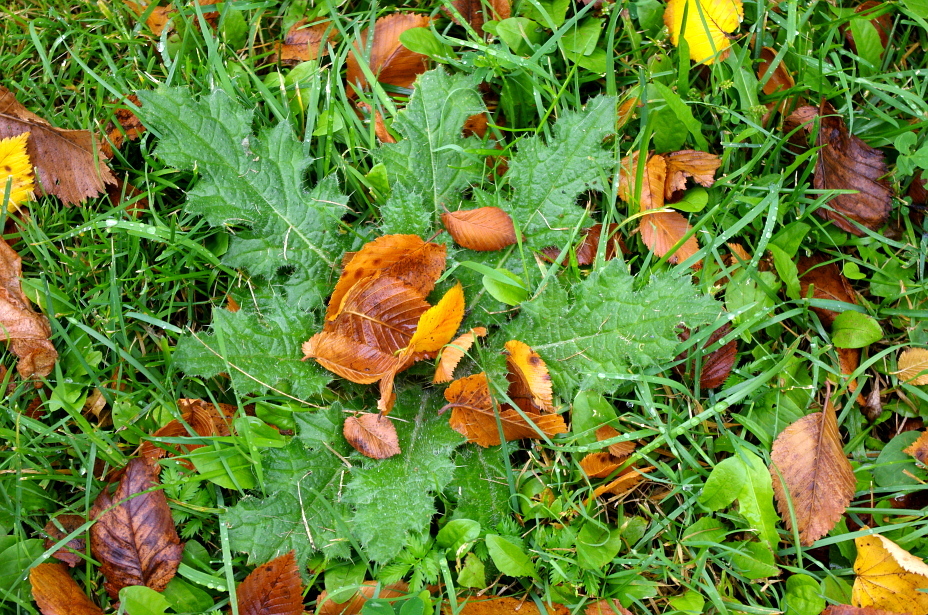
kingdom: Plantae
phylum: Tracheophyta
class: Magnoliopsida
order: Asterales
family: Asteraceae
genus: Cirsium
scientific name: Cirsium vulgare
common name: Bull thistle
